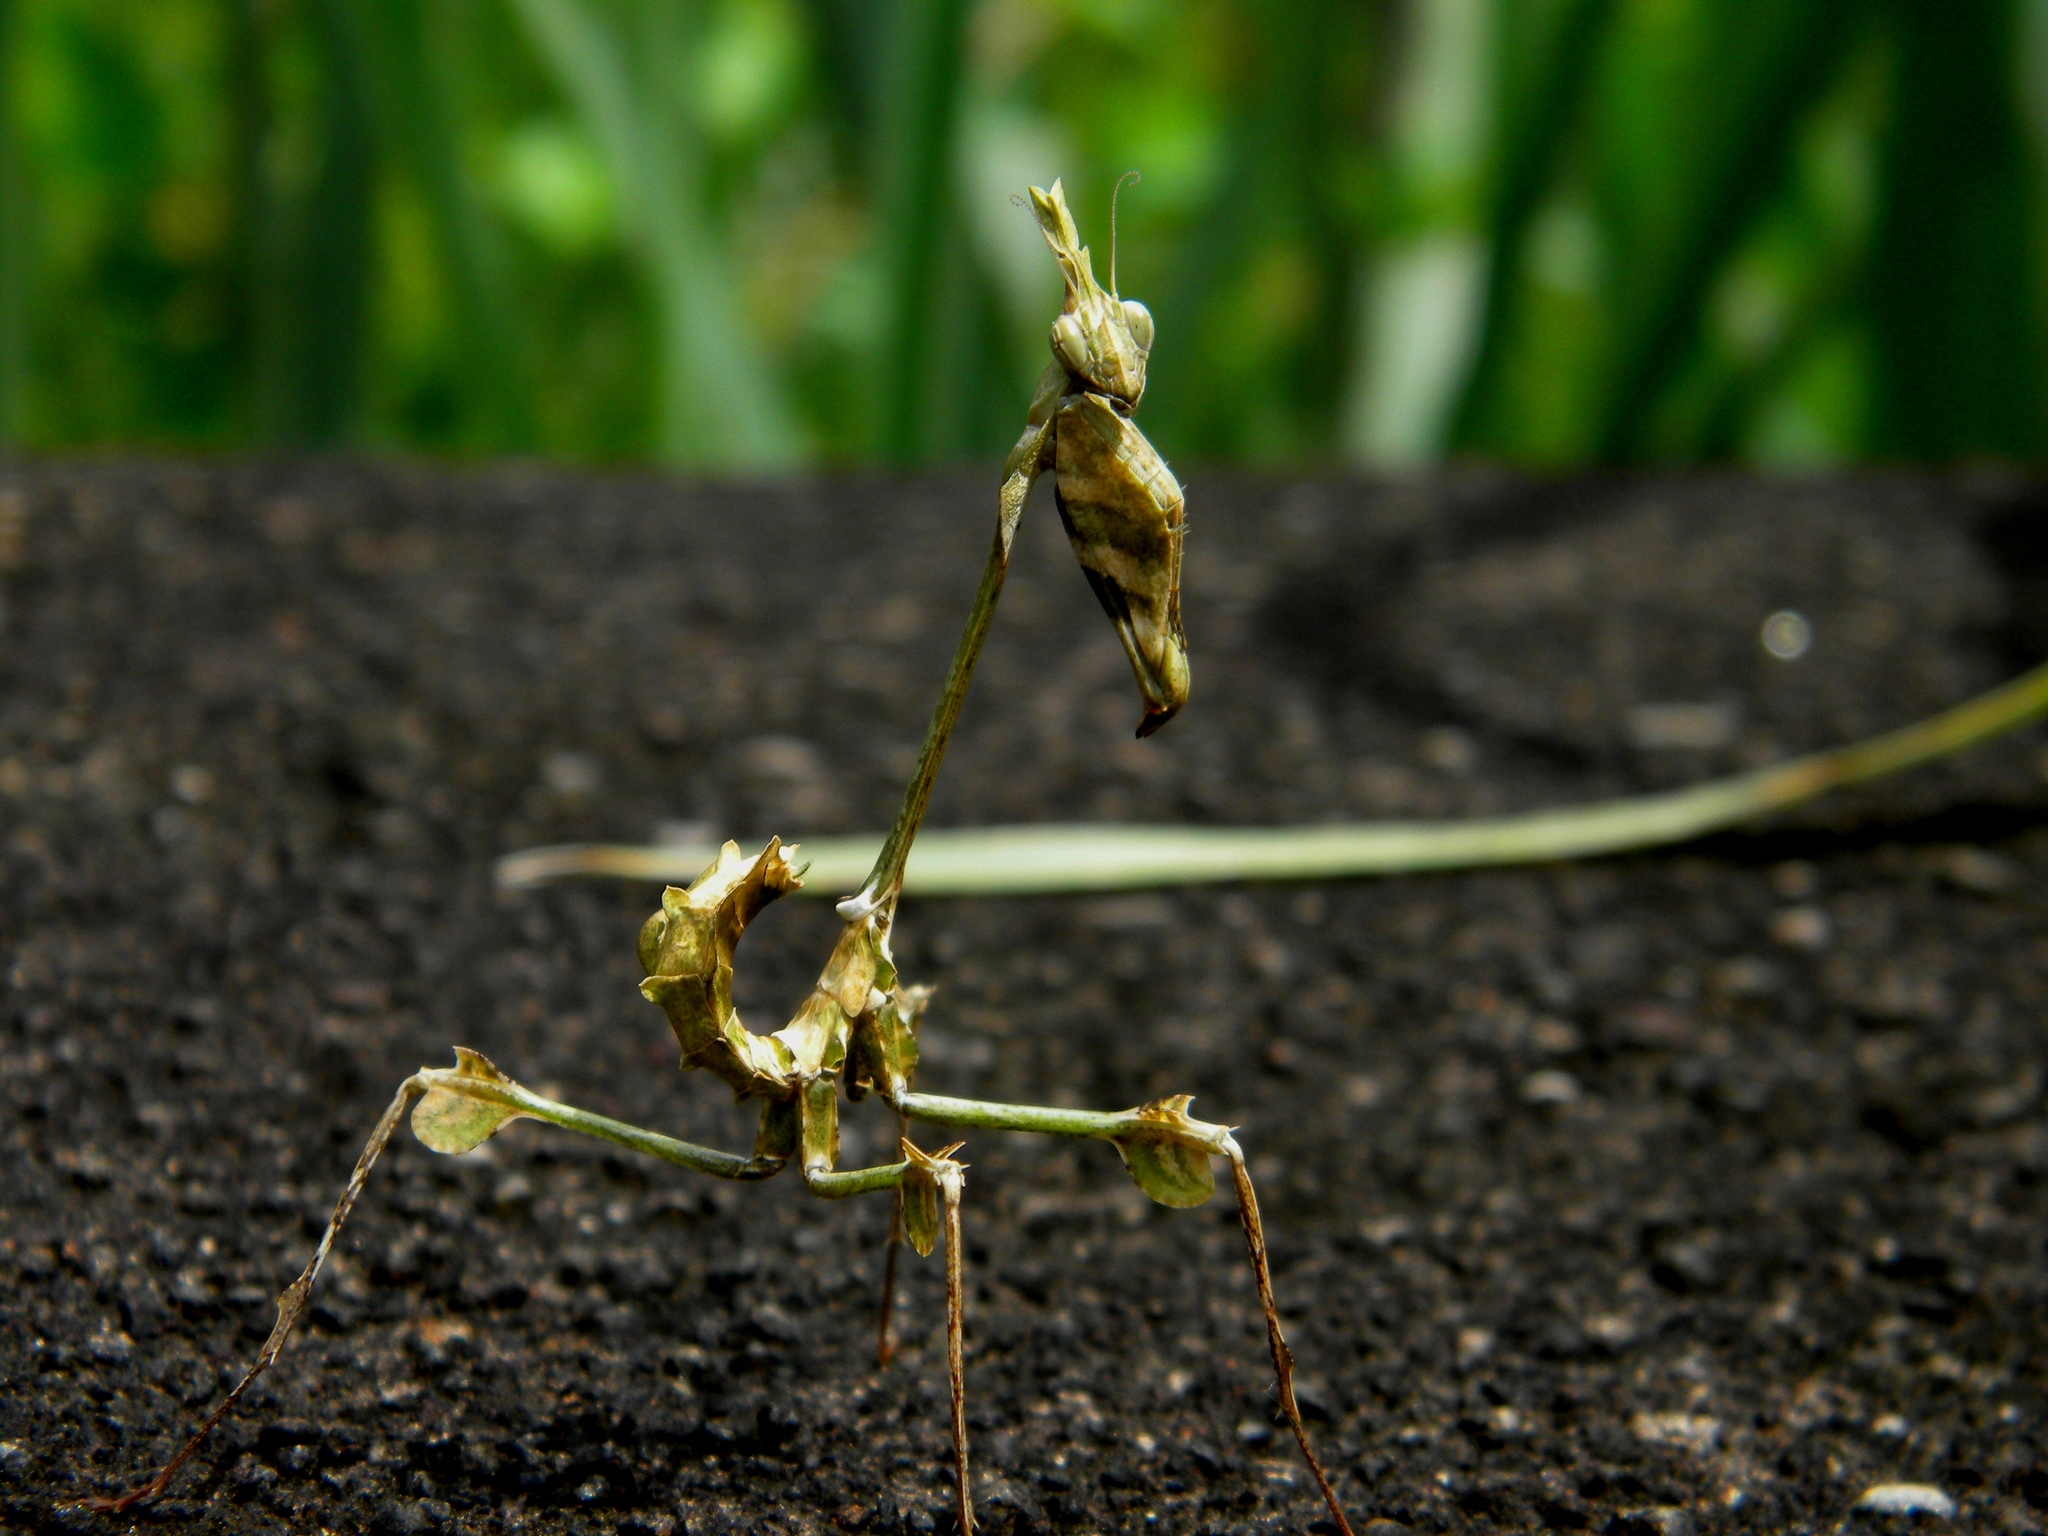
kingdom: Animalia
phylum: Arthropoda
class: Insecta
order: Mantodea
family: Empusidae
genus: Gongylus
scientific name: Gongylus gongylodes
